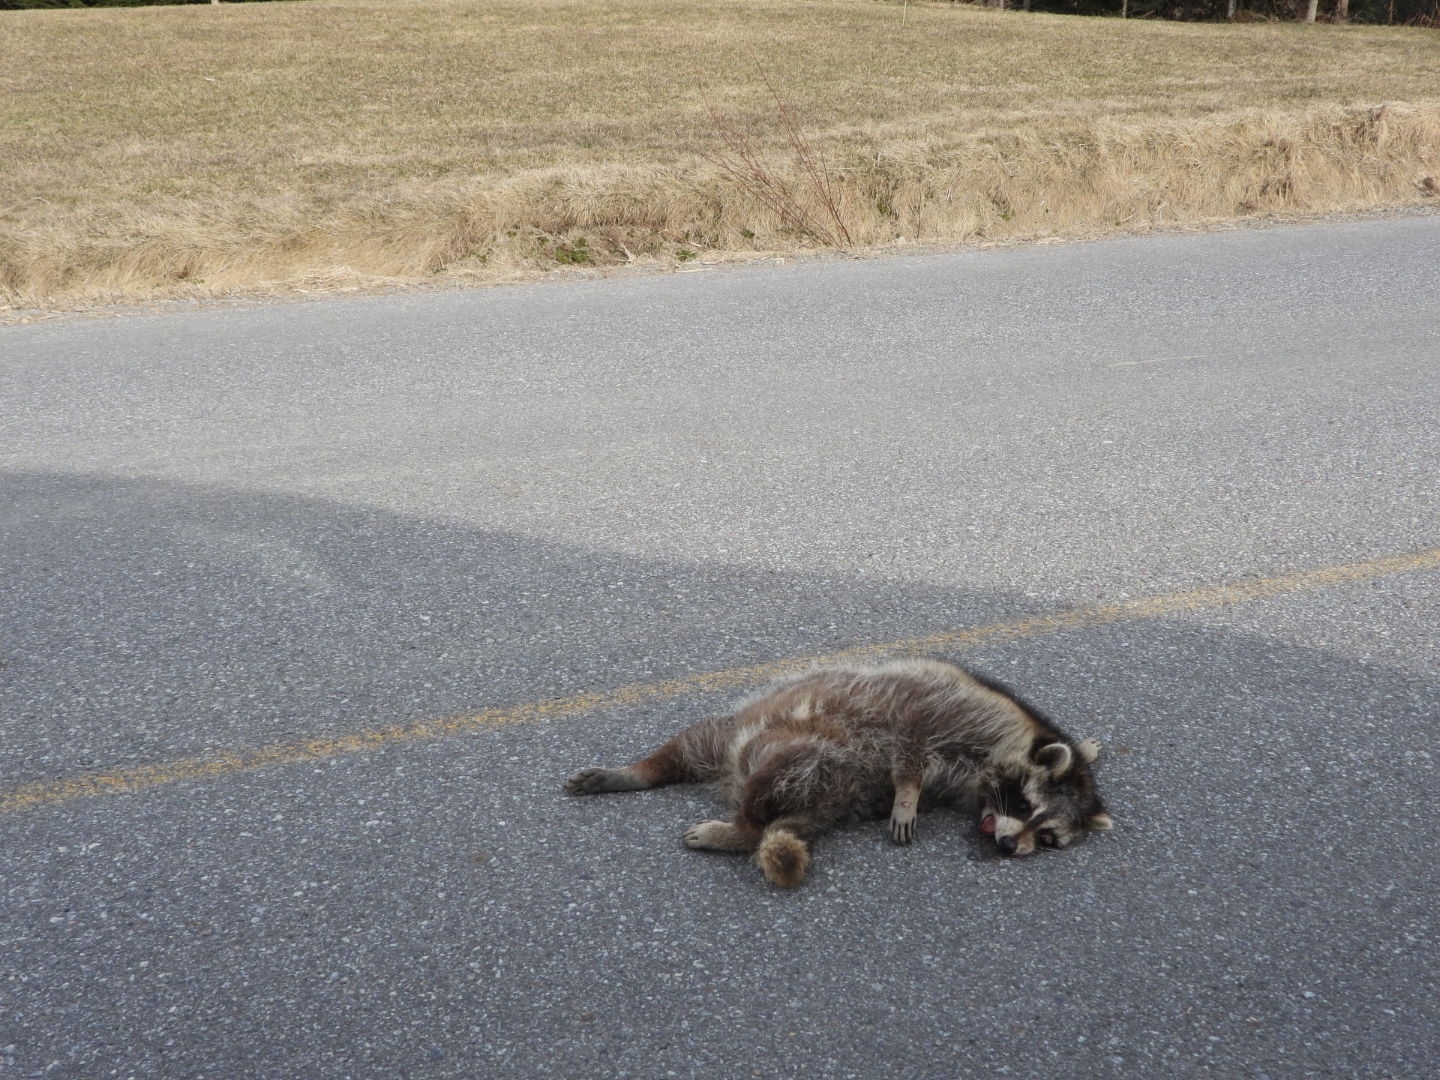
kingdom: Animalia
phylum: Chordata
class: Mammalia
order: Carnivora
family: Procyonidae
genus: Procyon
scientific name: Procyon lotor
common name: Raccoon
